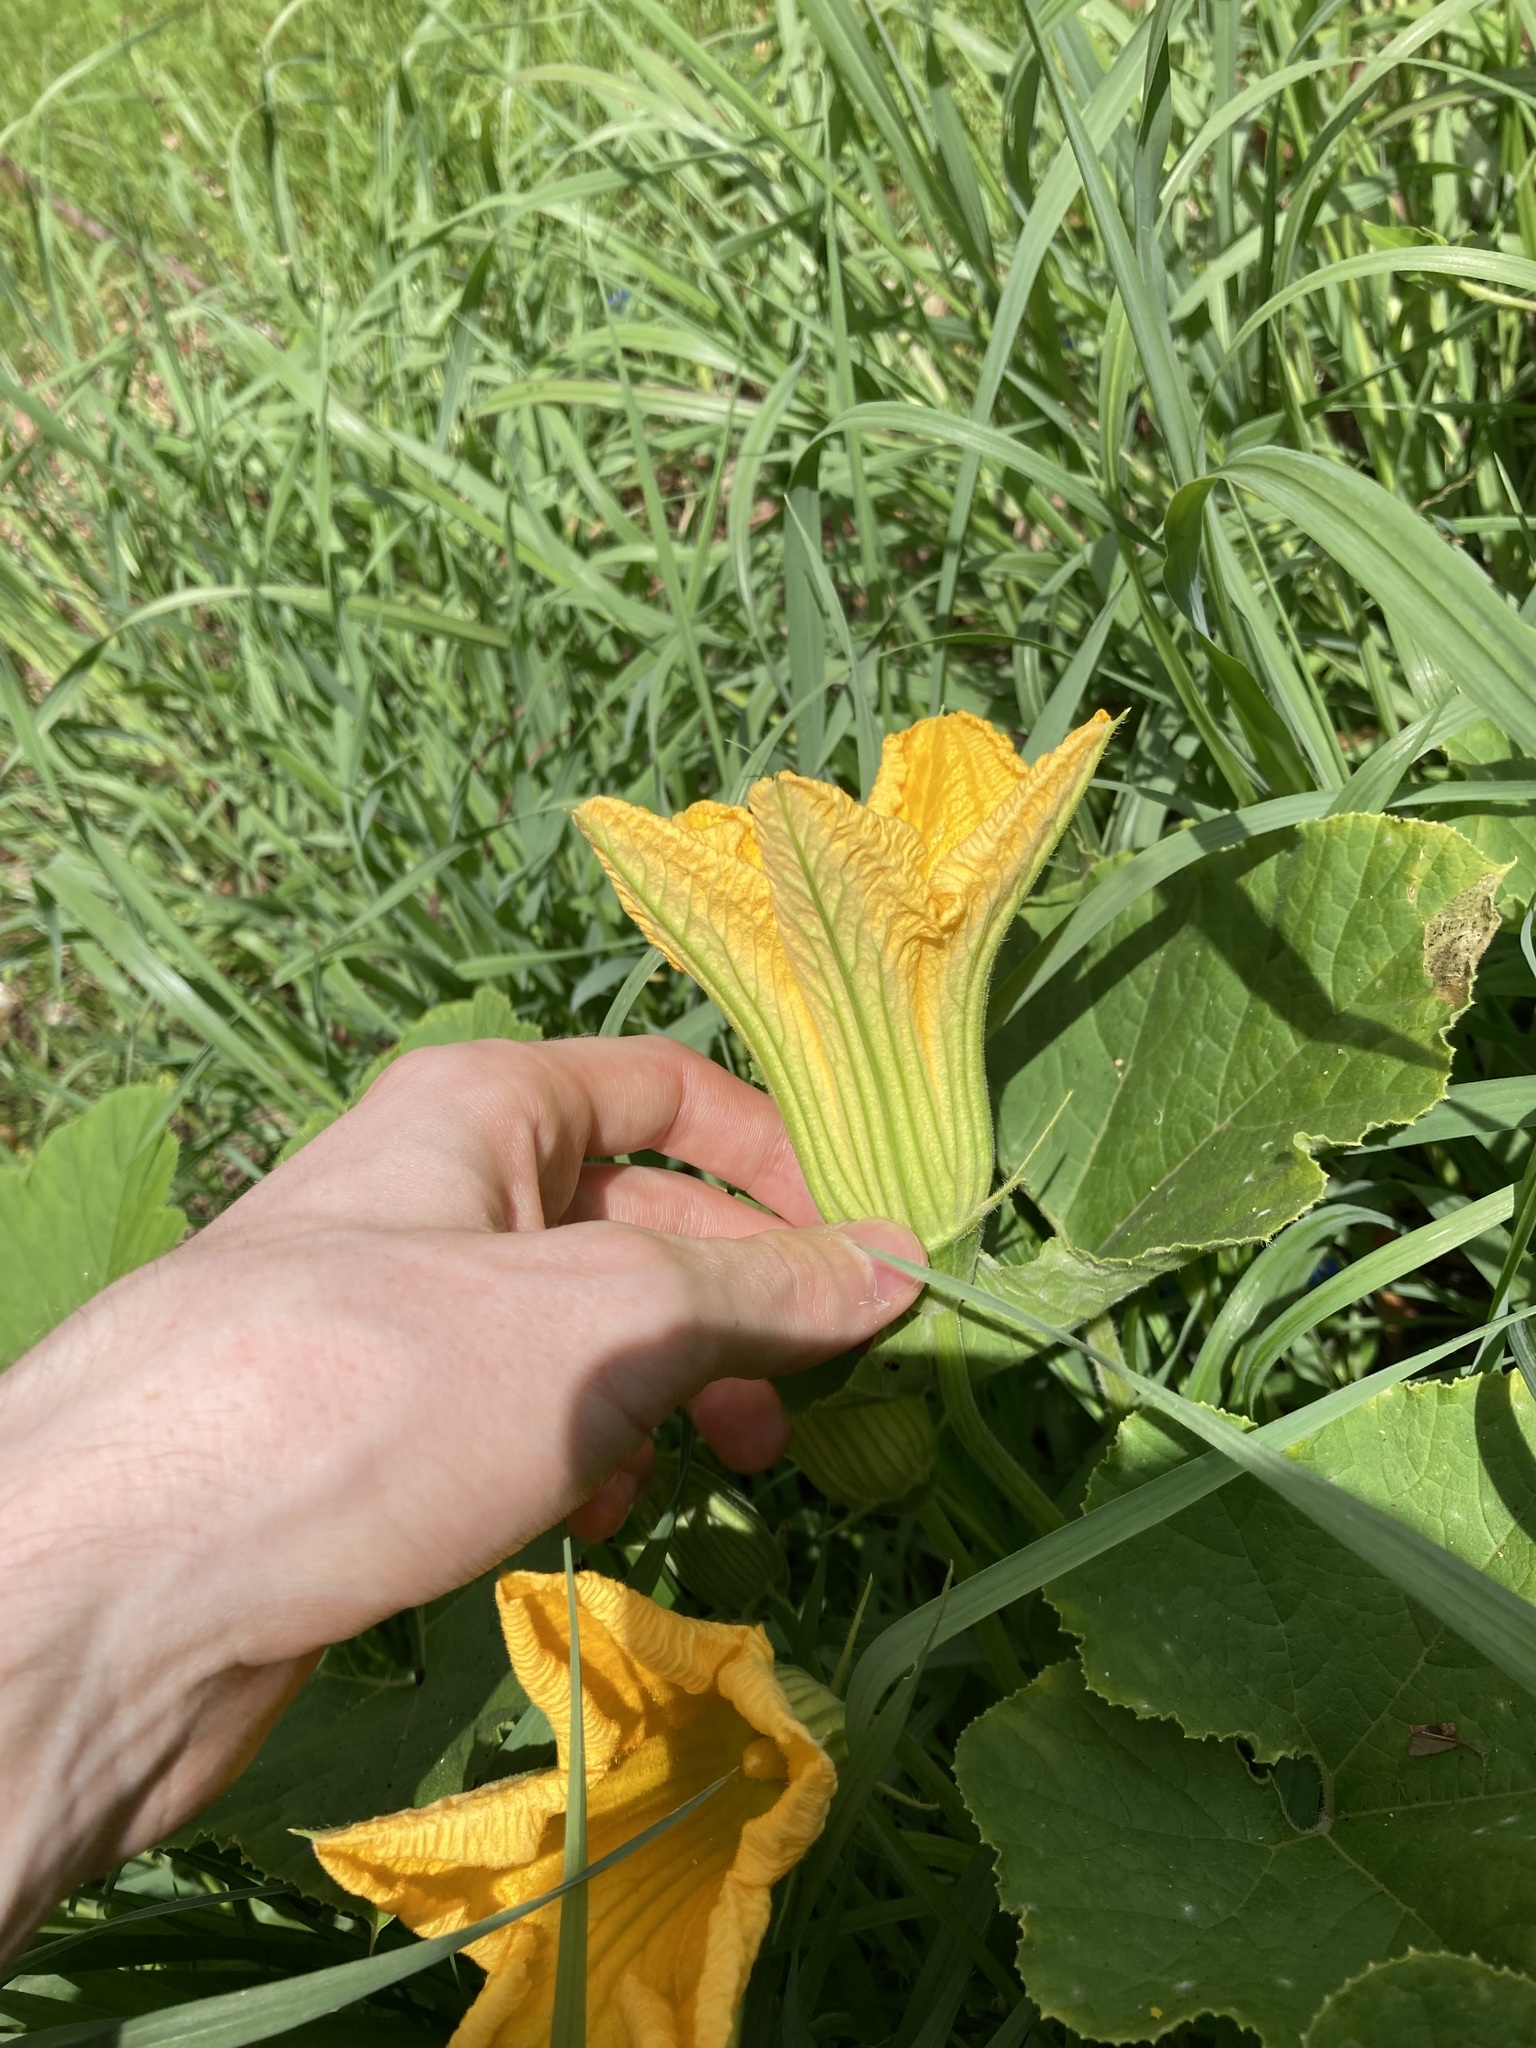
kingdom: Plantae
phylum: Tracheophyta
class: Magnoliopsida
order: Cucurbitales
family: Cucurbitaceae
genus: Cucurbita
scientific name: Cucurbita maxima
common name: Pumpkin
